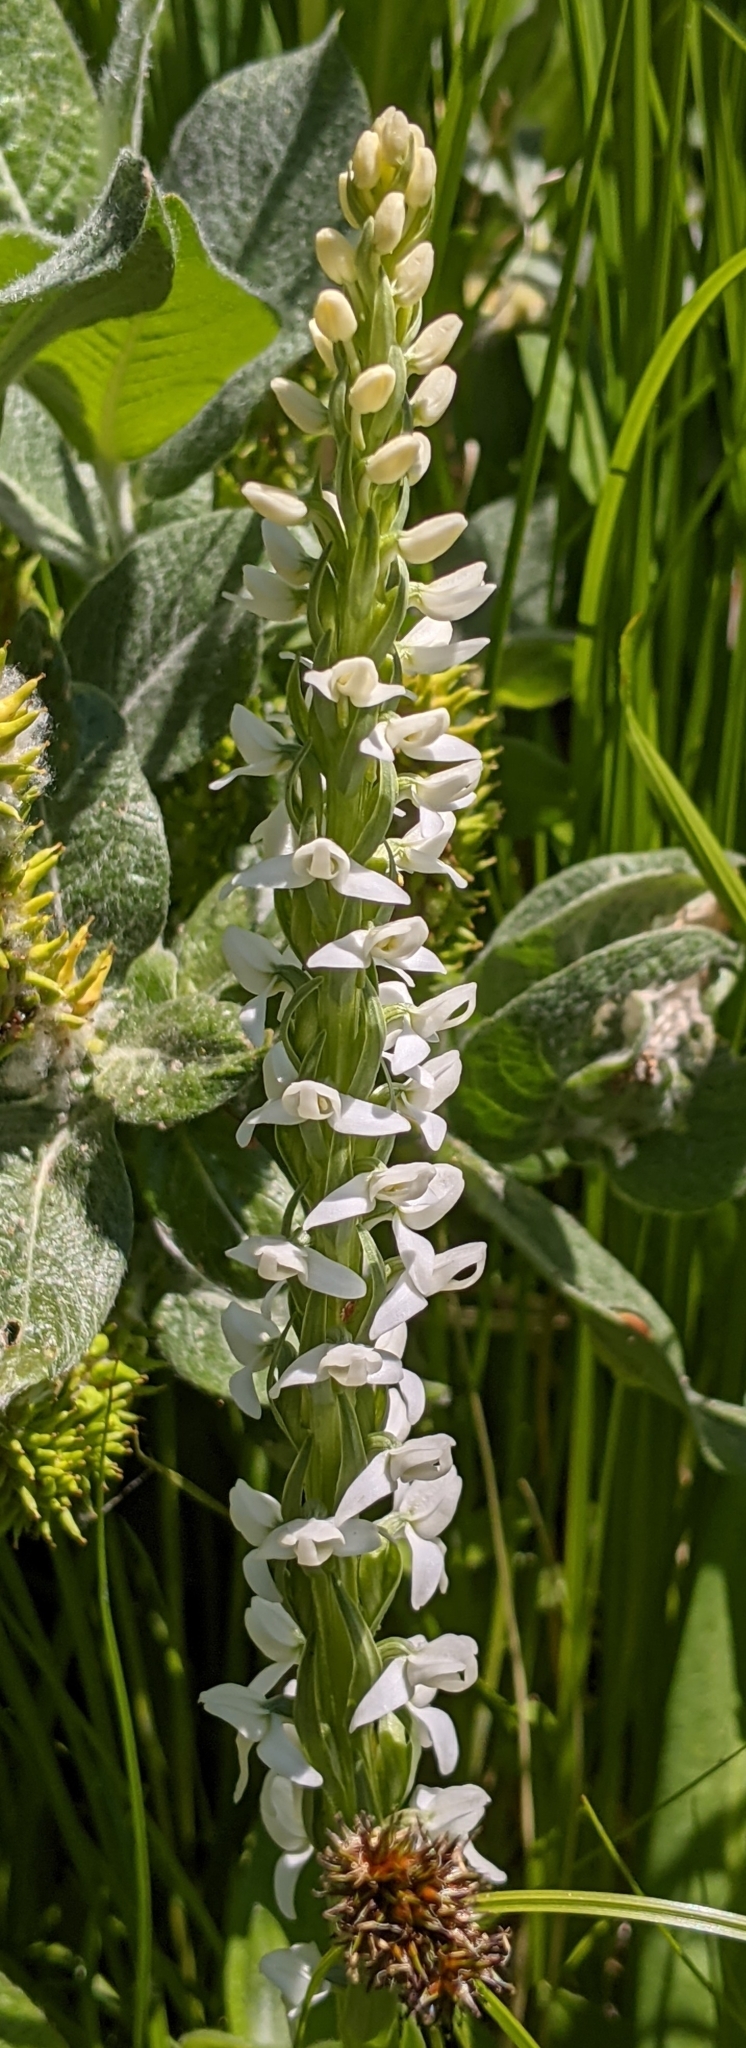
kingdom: Plantae
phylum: Tracheophyta
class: Liliopsida
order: Asparagales
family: Orchidaceae
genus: Platanthera
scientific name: Platanthera dilatata
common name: Bog candles
